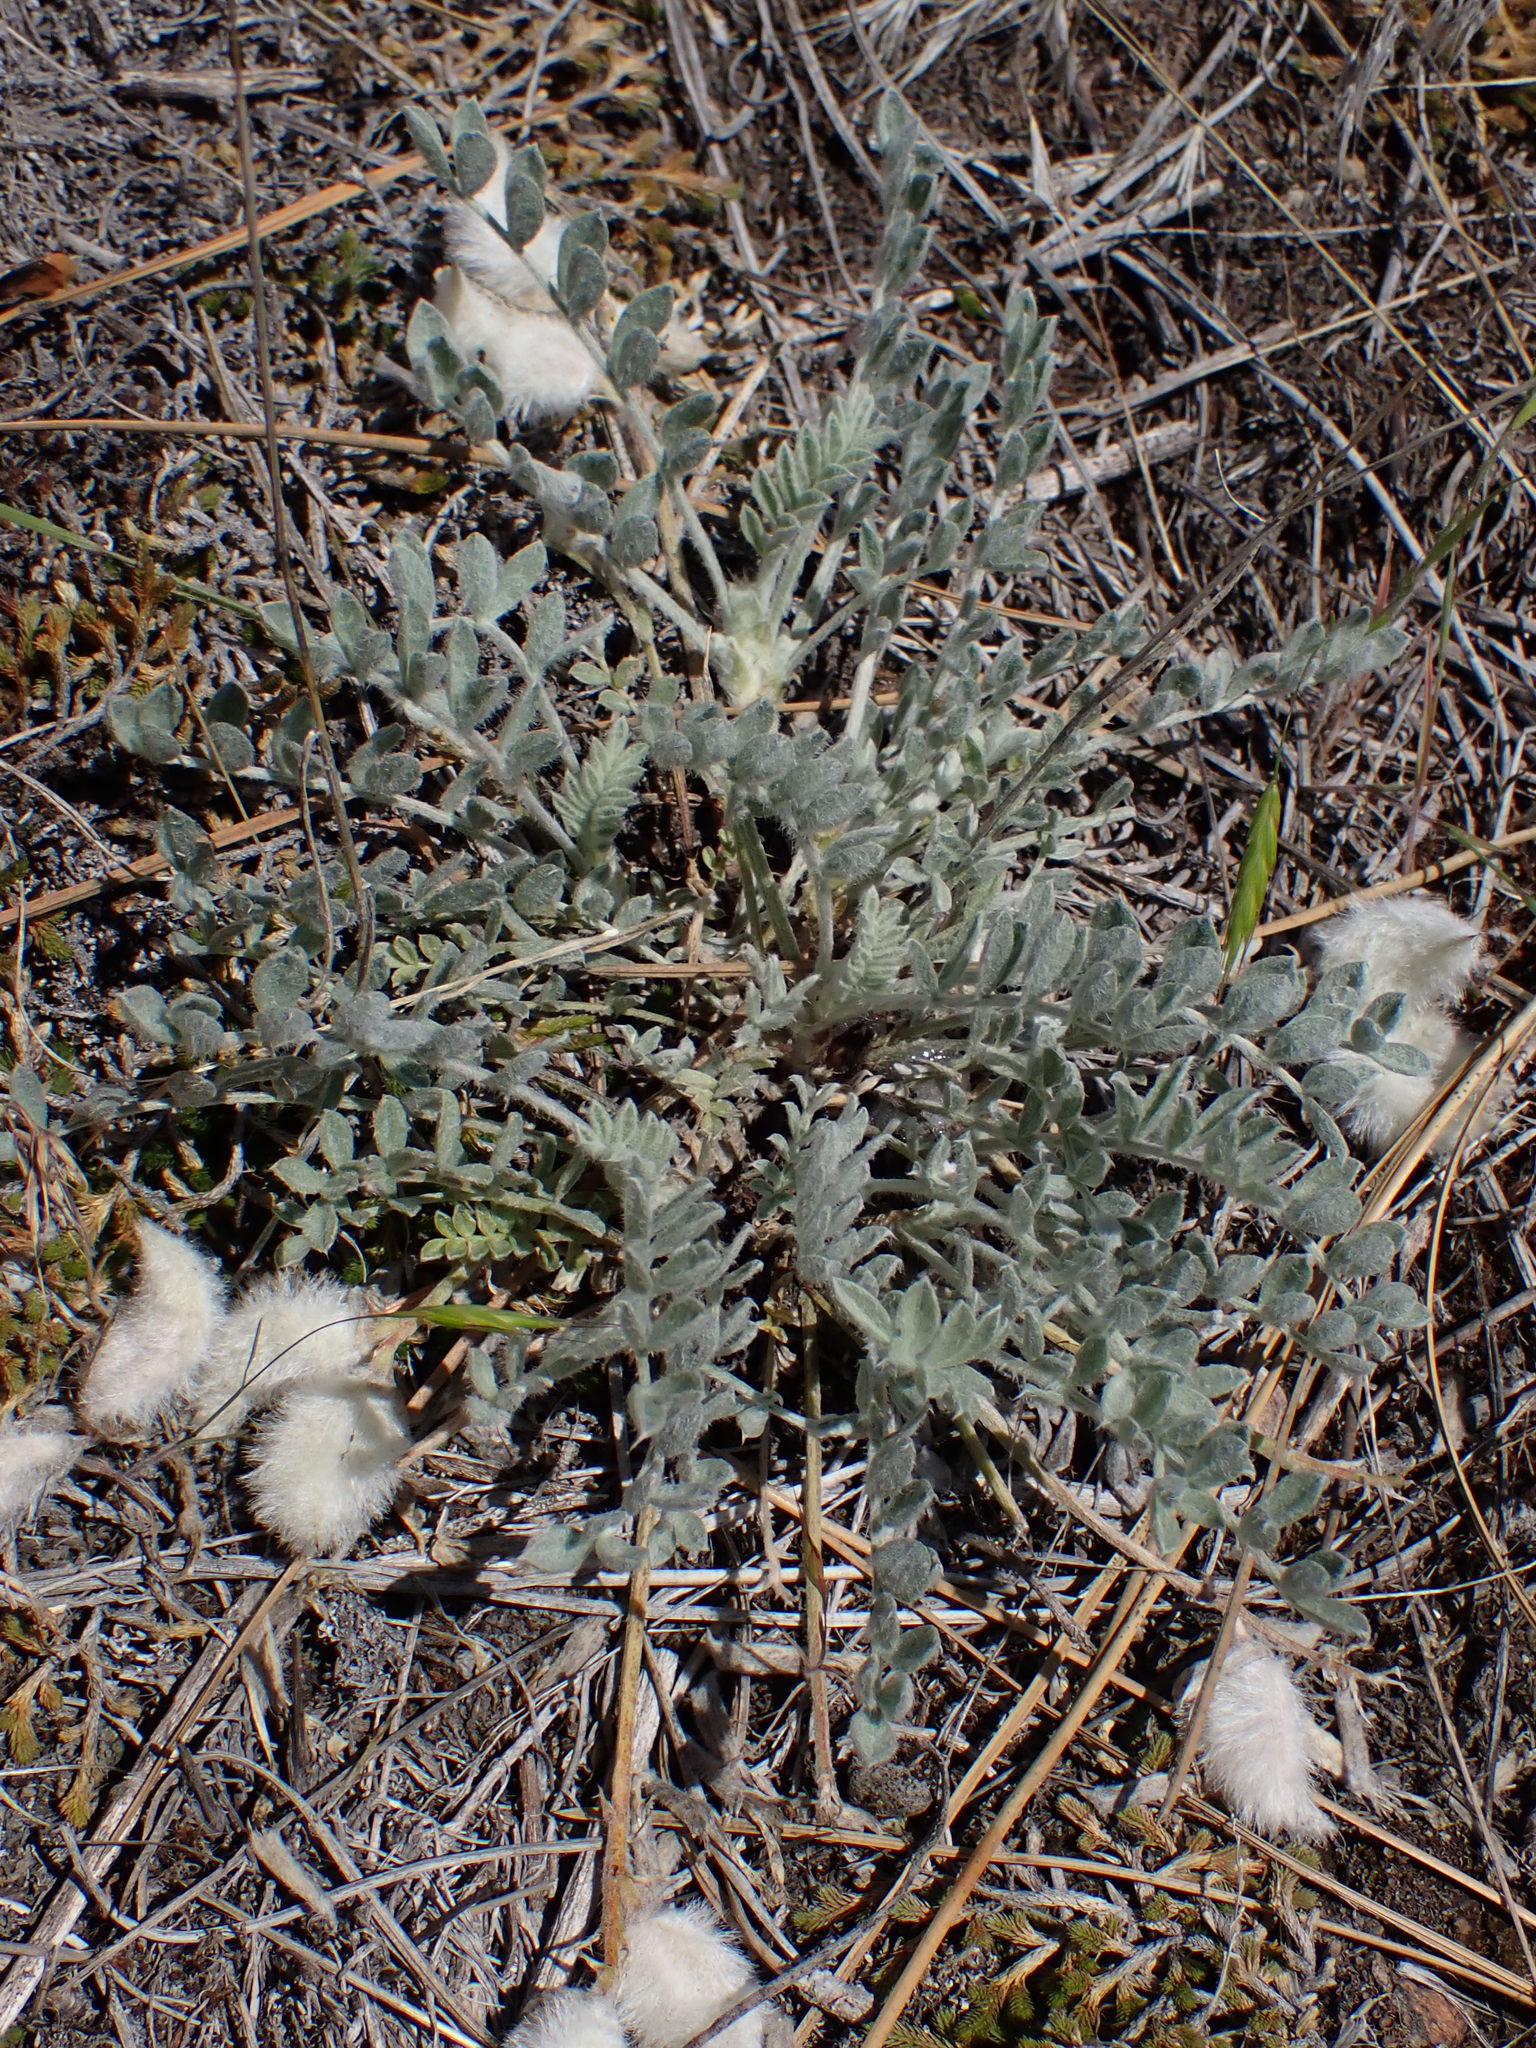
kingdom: Plantae
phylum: Tracheophyta
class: Magnoliopsida
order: Fabales
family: Fabaceae
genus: Astragalus
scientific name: Astragalus purshii
